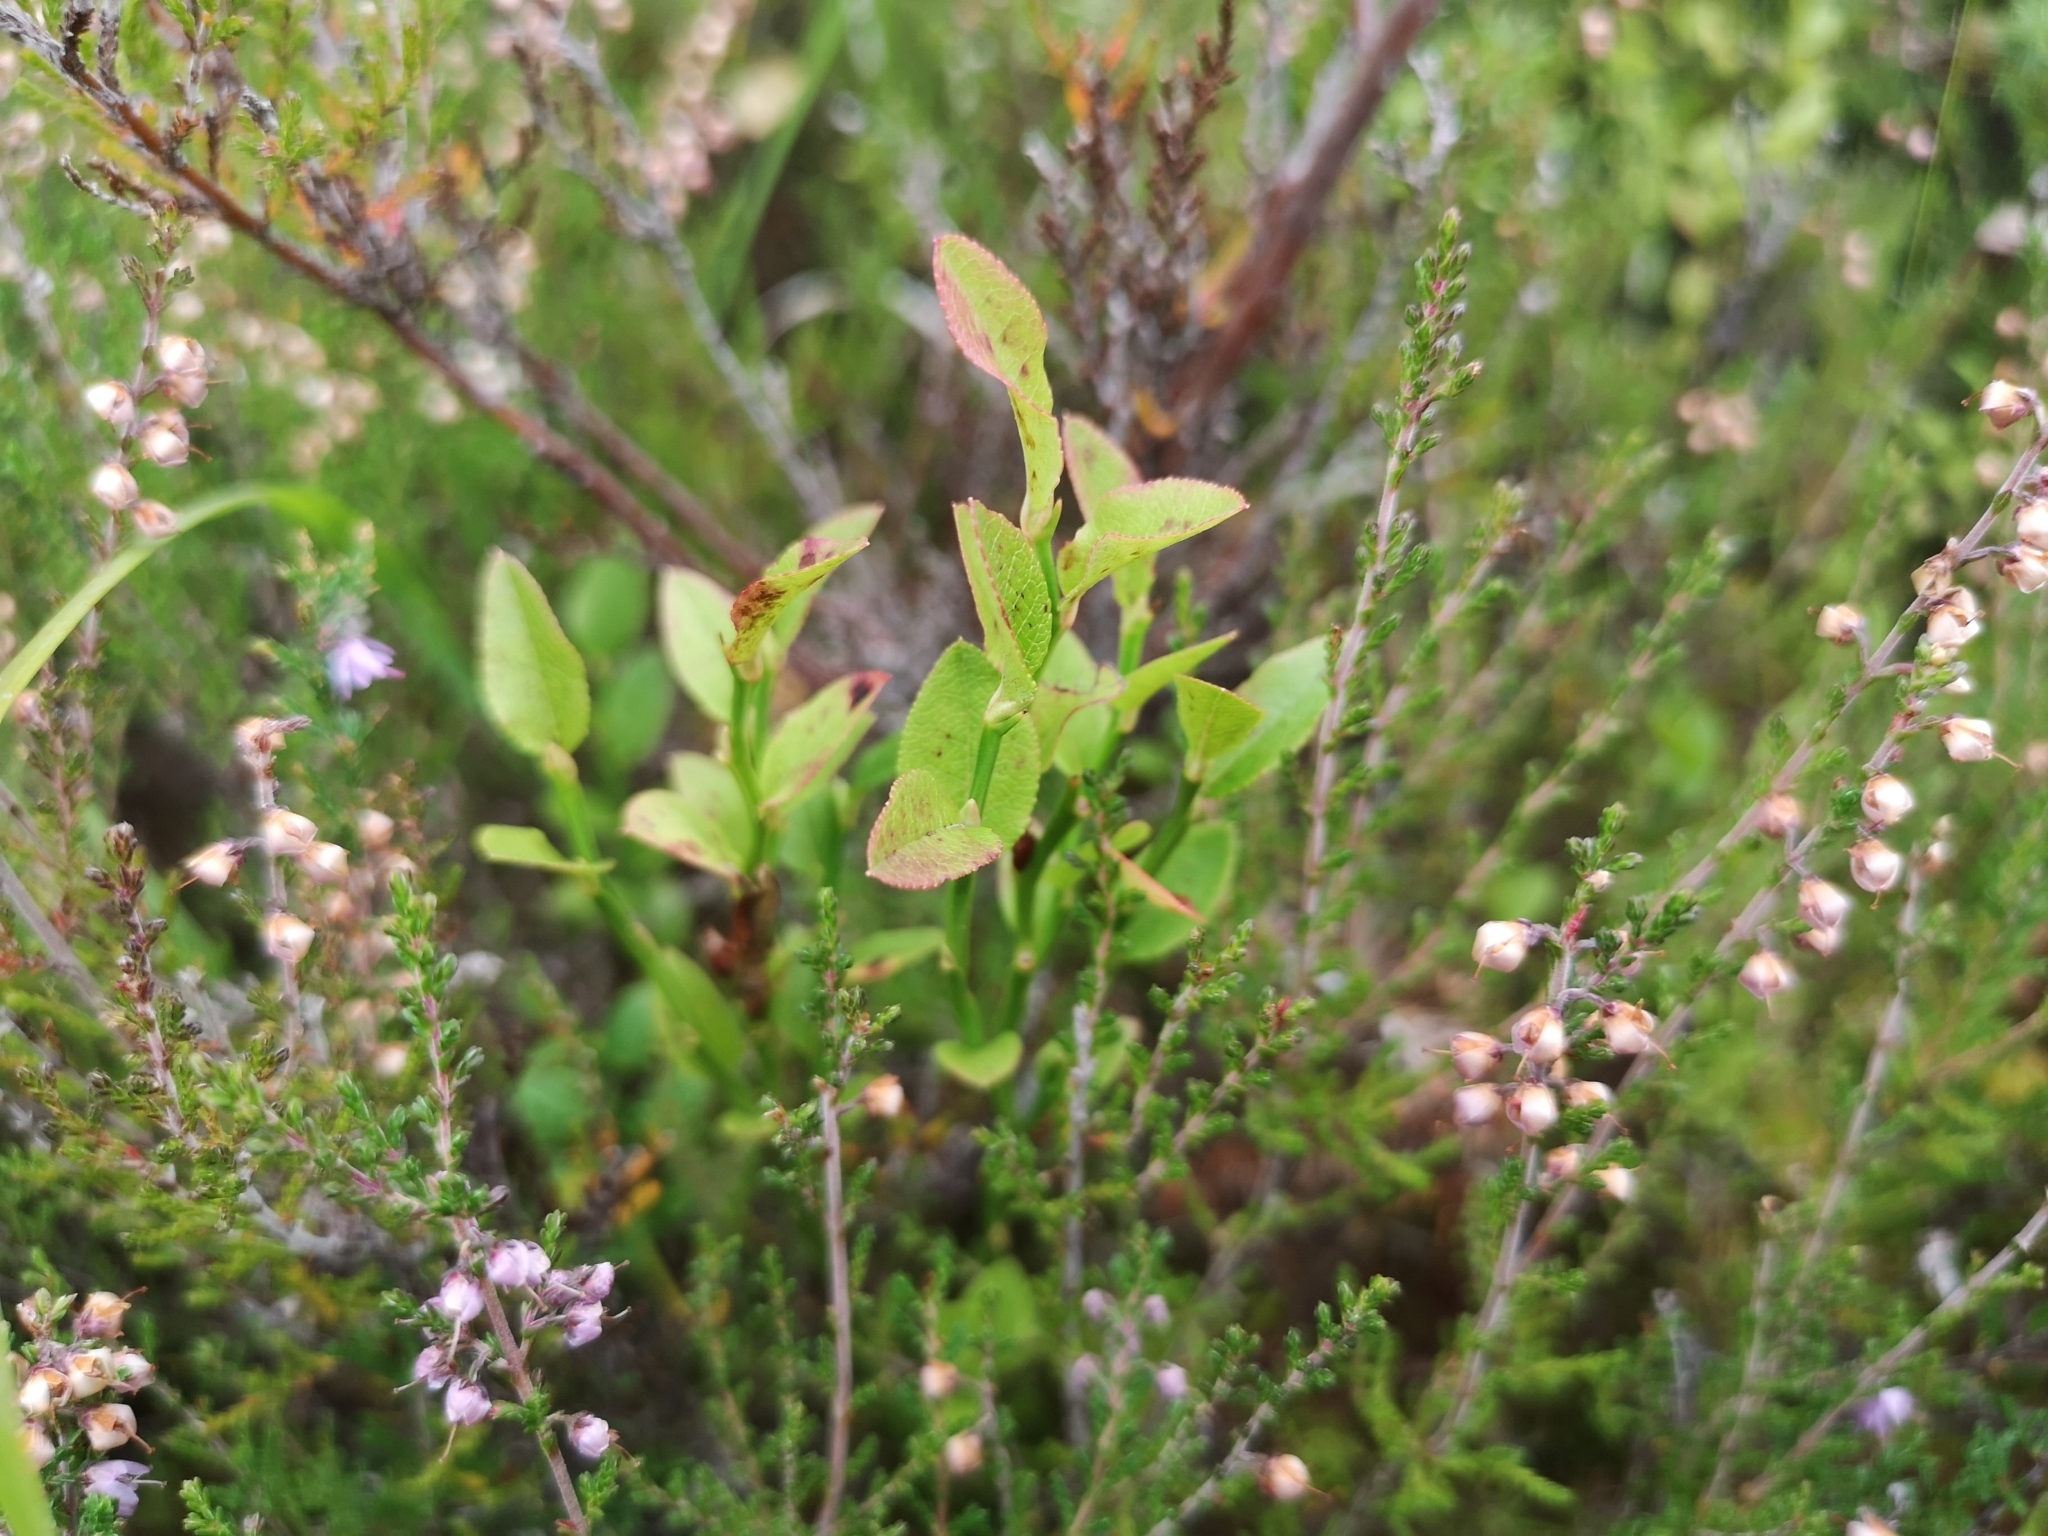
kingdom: Plantae
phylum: Tracheophyta
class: Magnoliopsida
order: Ericales
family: Ericaceae
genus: Vaccinium
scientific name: Vaccinium myrtillus
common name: Bilberry
